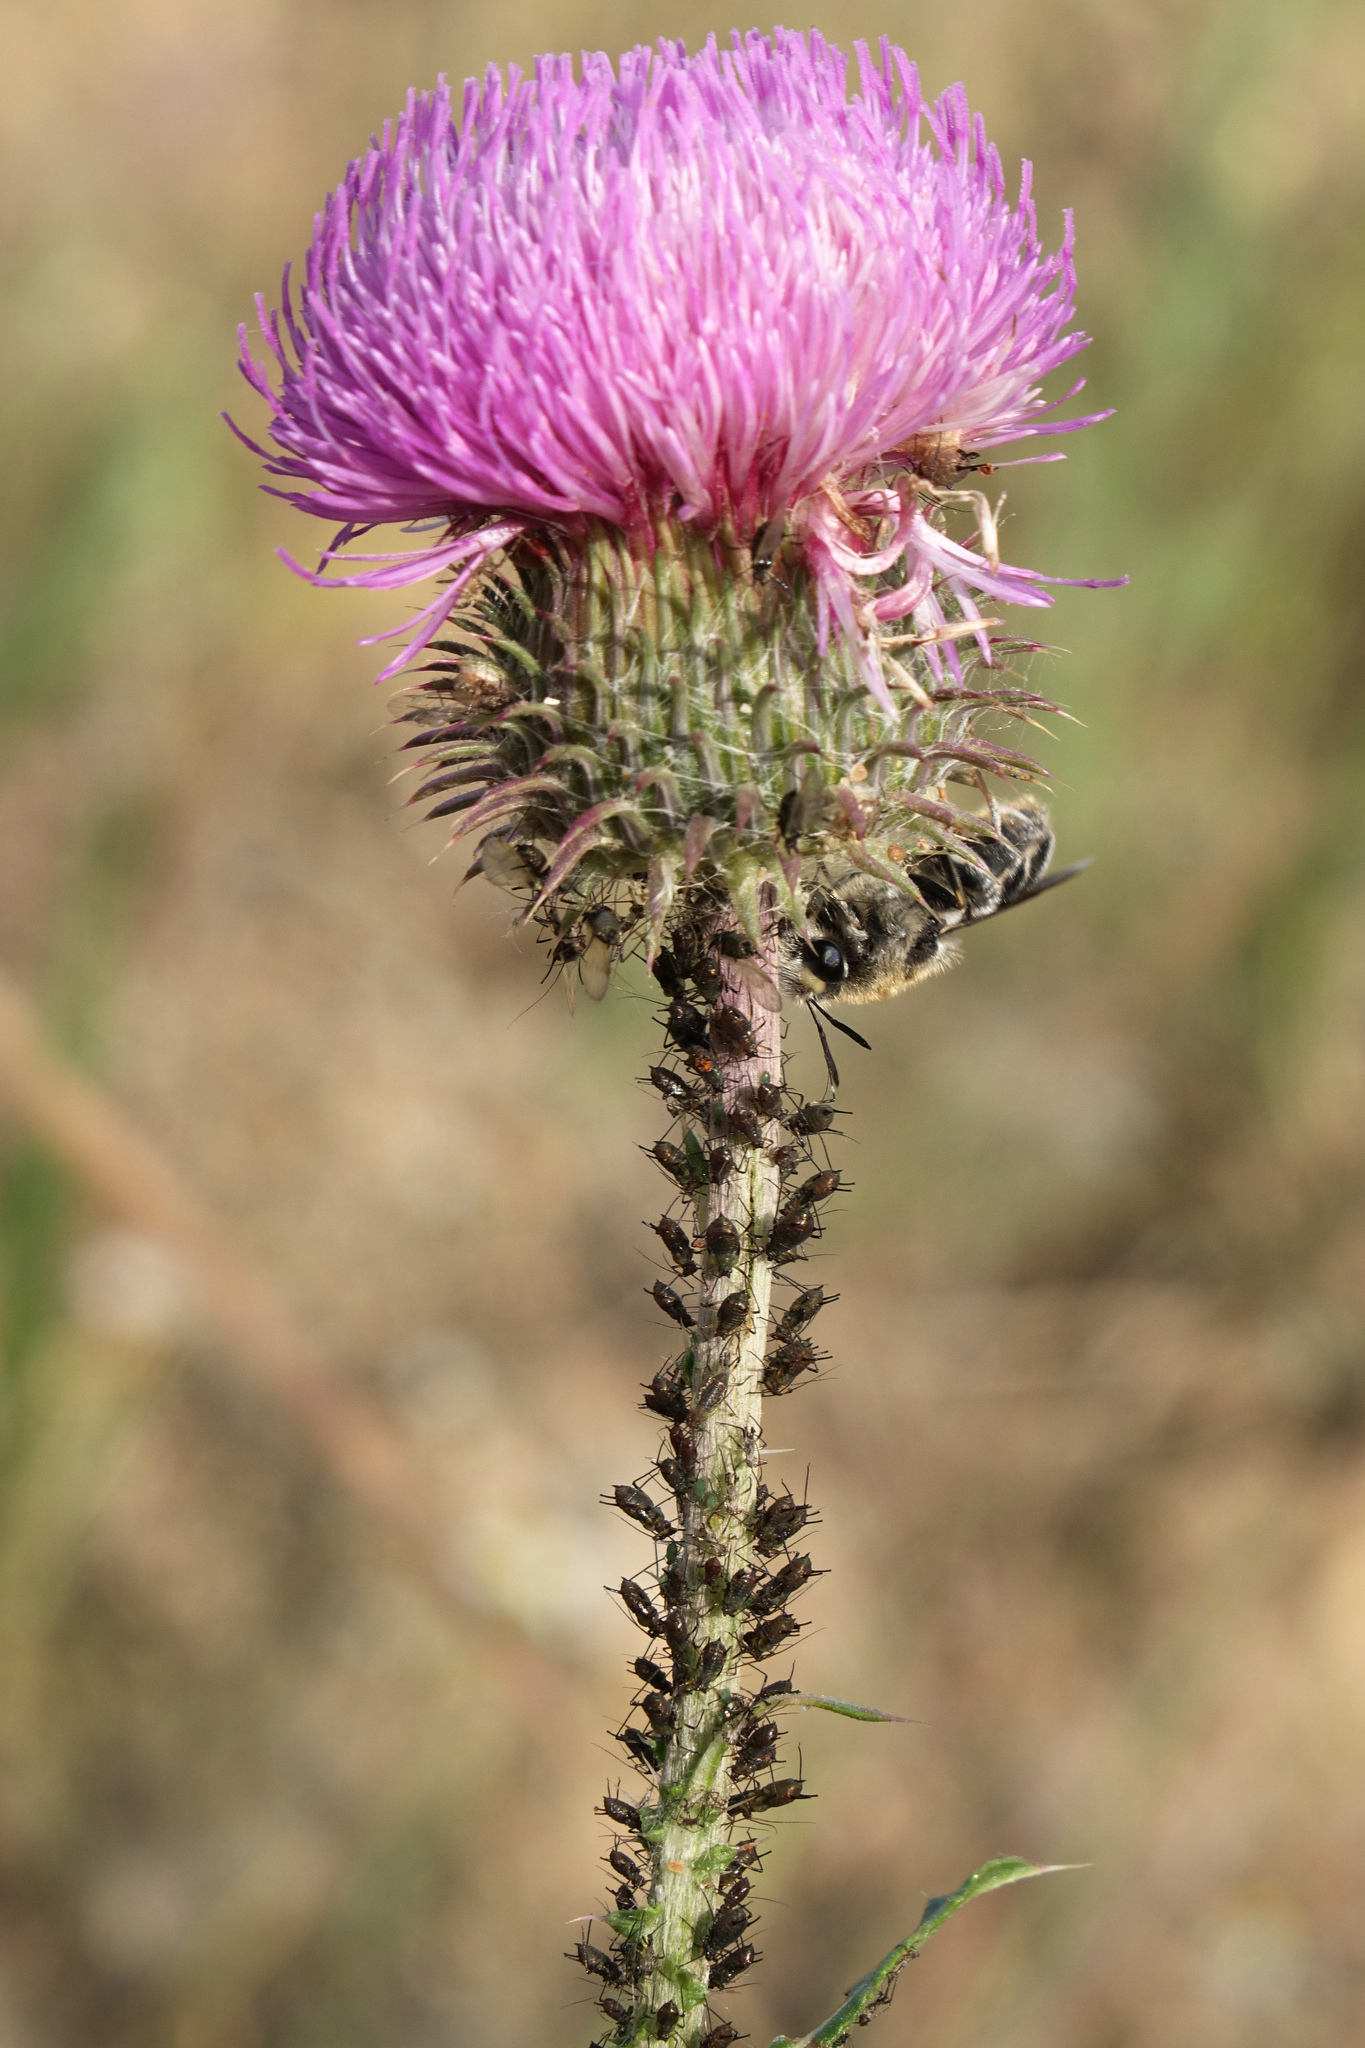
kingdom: Plantae
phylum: Tracheophyta
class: Magnoliopsida
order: Asterales
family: Asteraceae
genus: Carduus
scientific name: Carduus uncinatus
